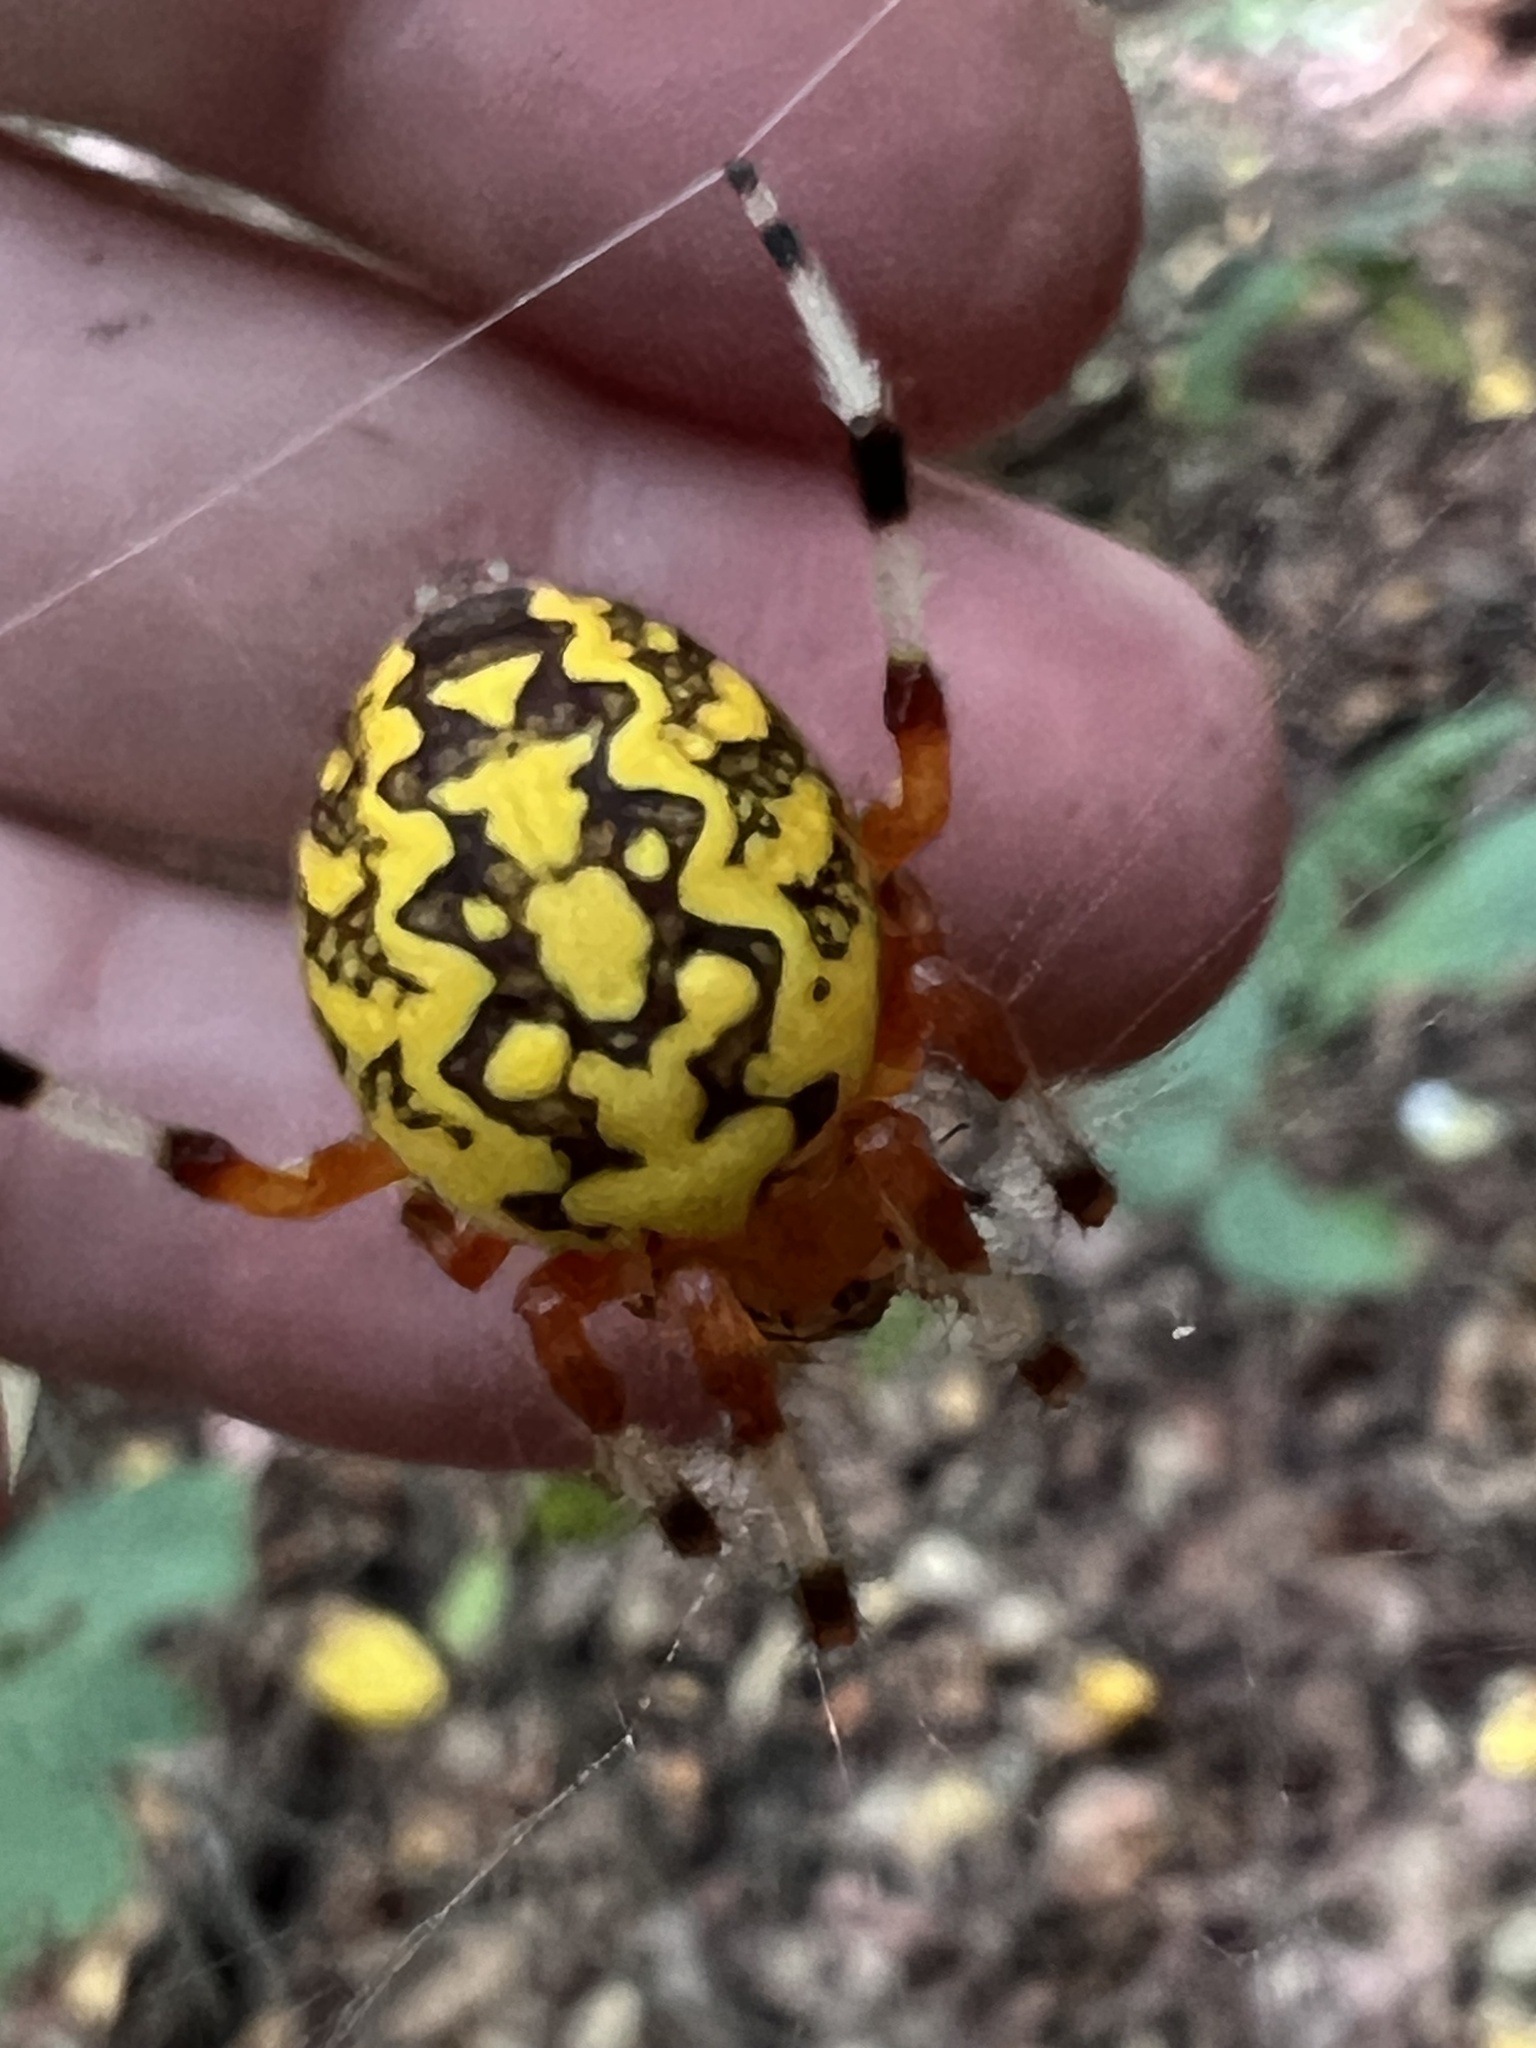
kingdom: Animalia
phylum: Arthropoda
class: Arachnida
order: Araneae
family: Araneidae
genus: Araneus
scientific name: Araneus marmoreus
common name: Marbled orbweaver
